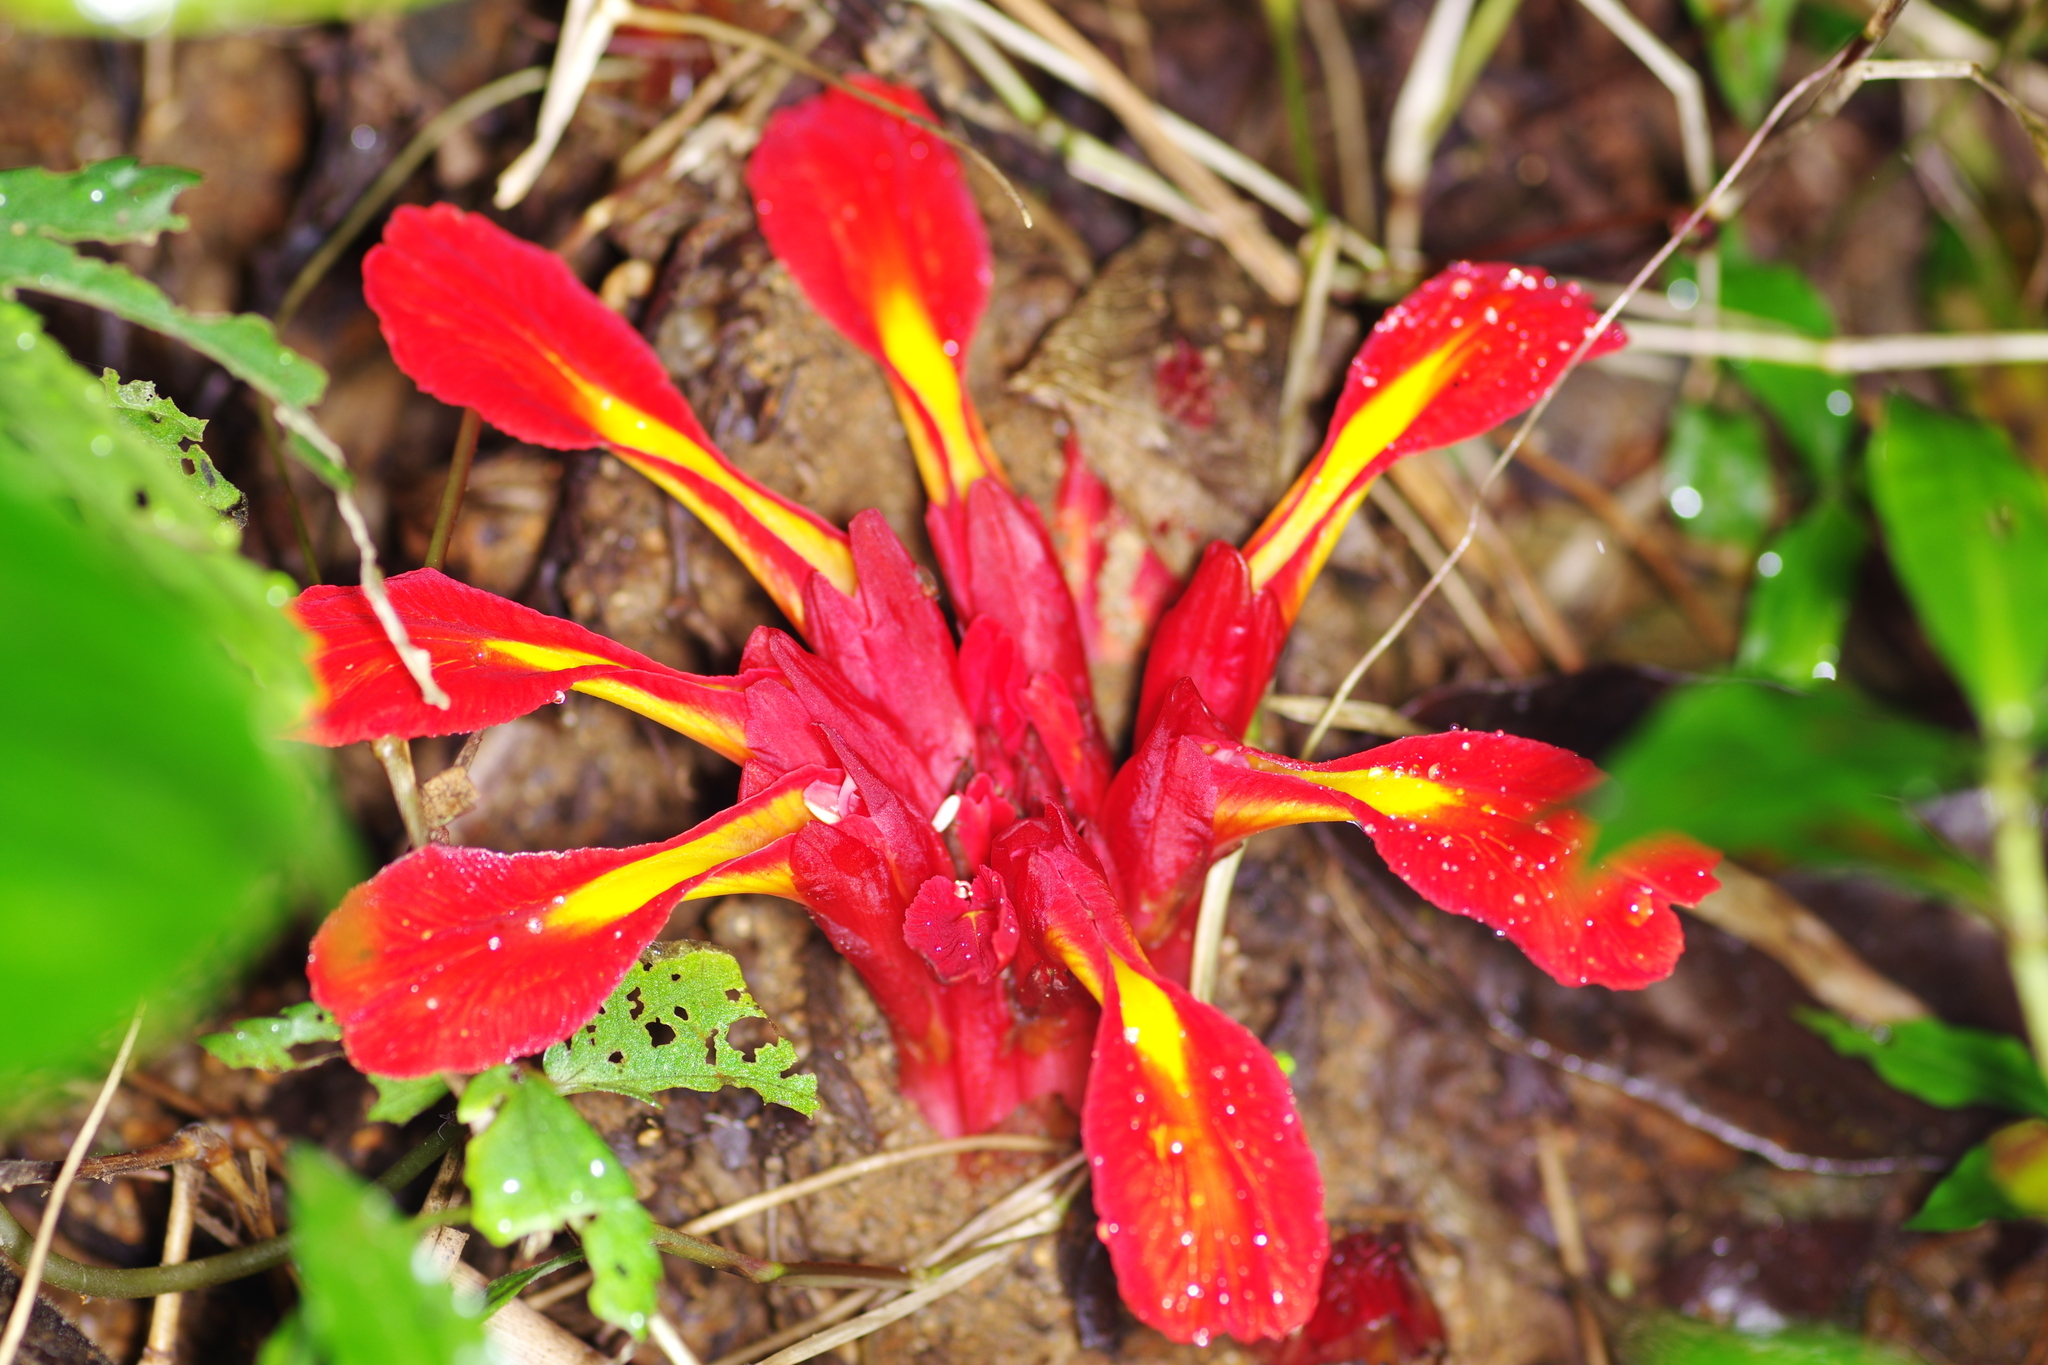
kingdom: Plantae
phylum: Tracheophyta
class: Liliopsida
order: Zingiberales
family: Zingiberaceae
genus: Etlingera
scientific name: Etlingera coccinea
